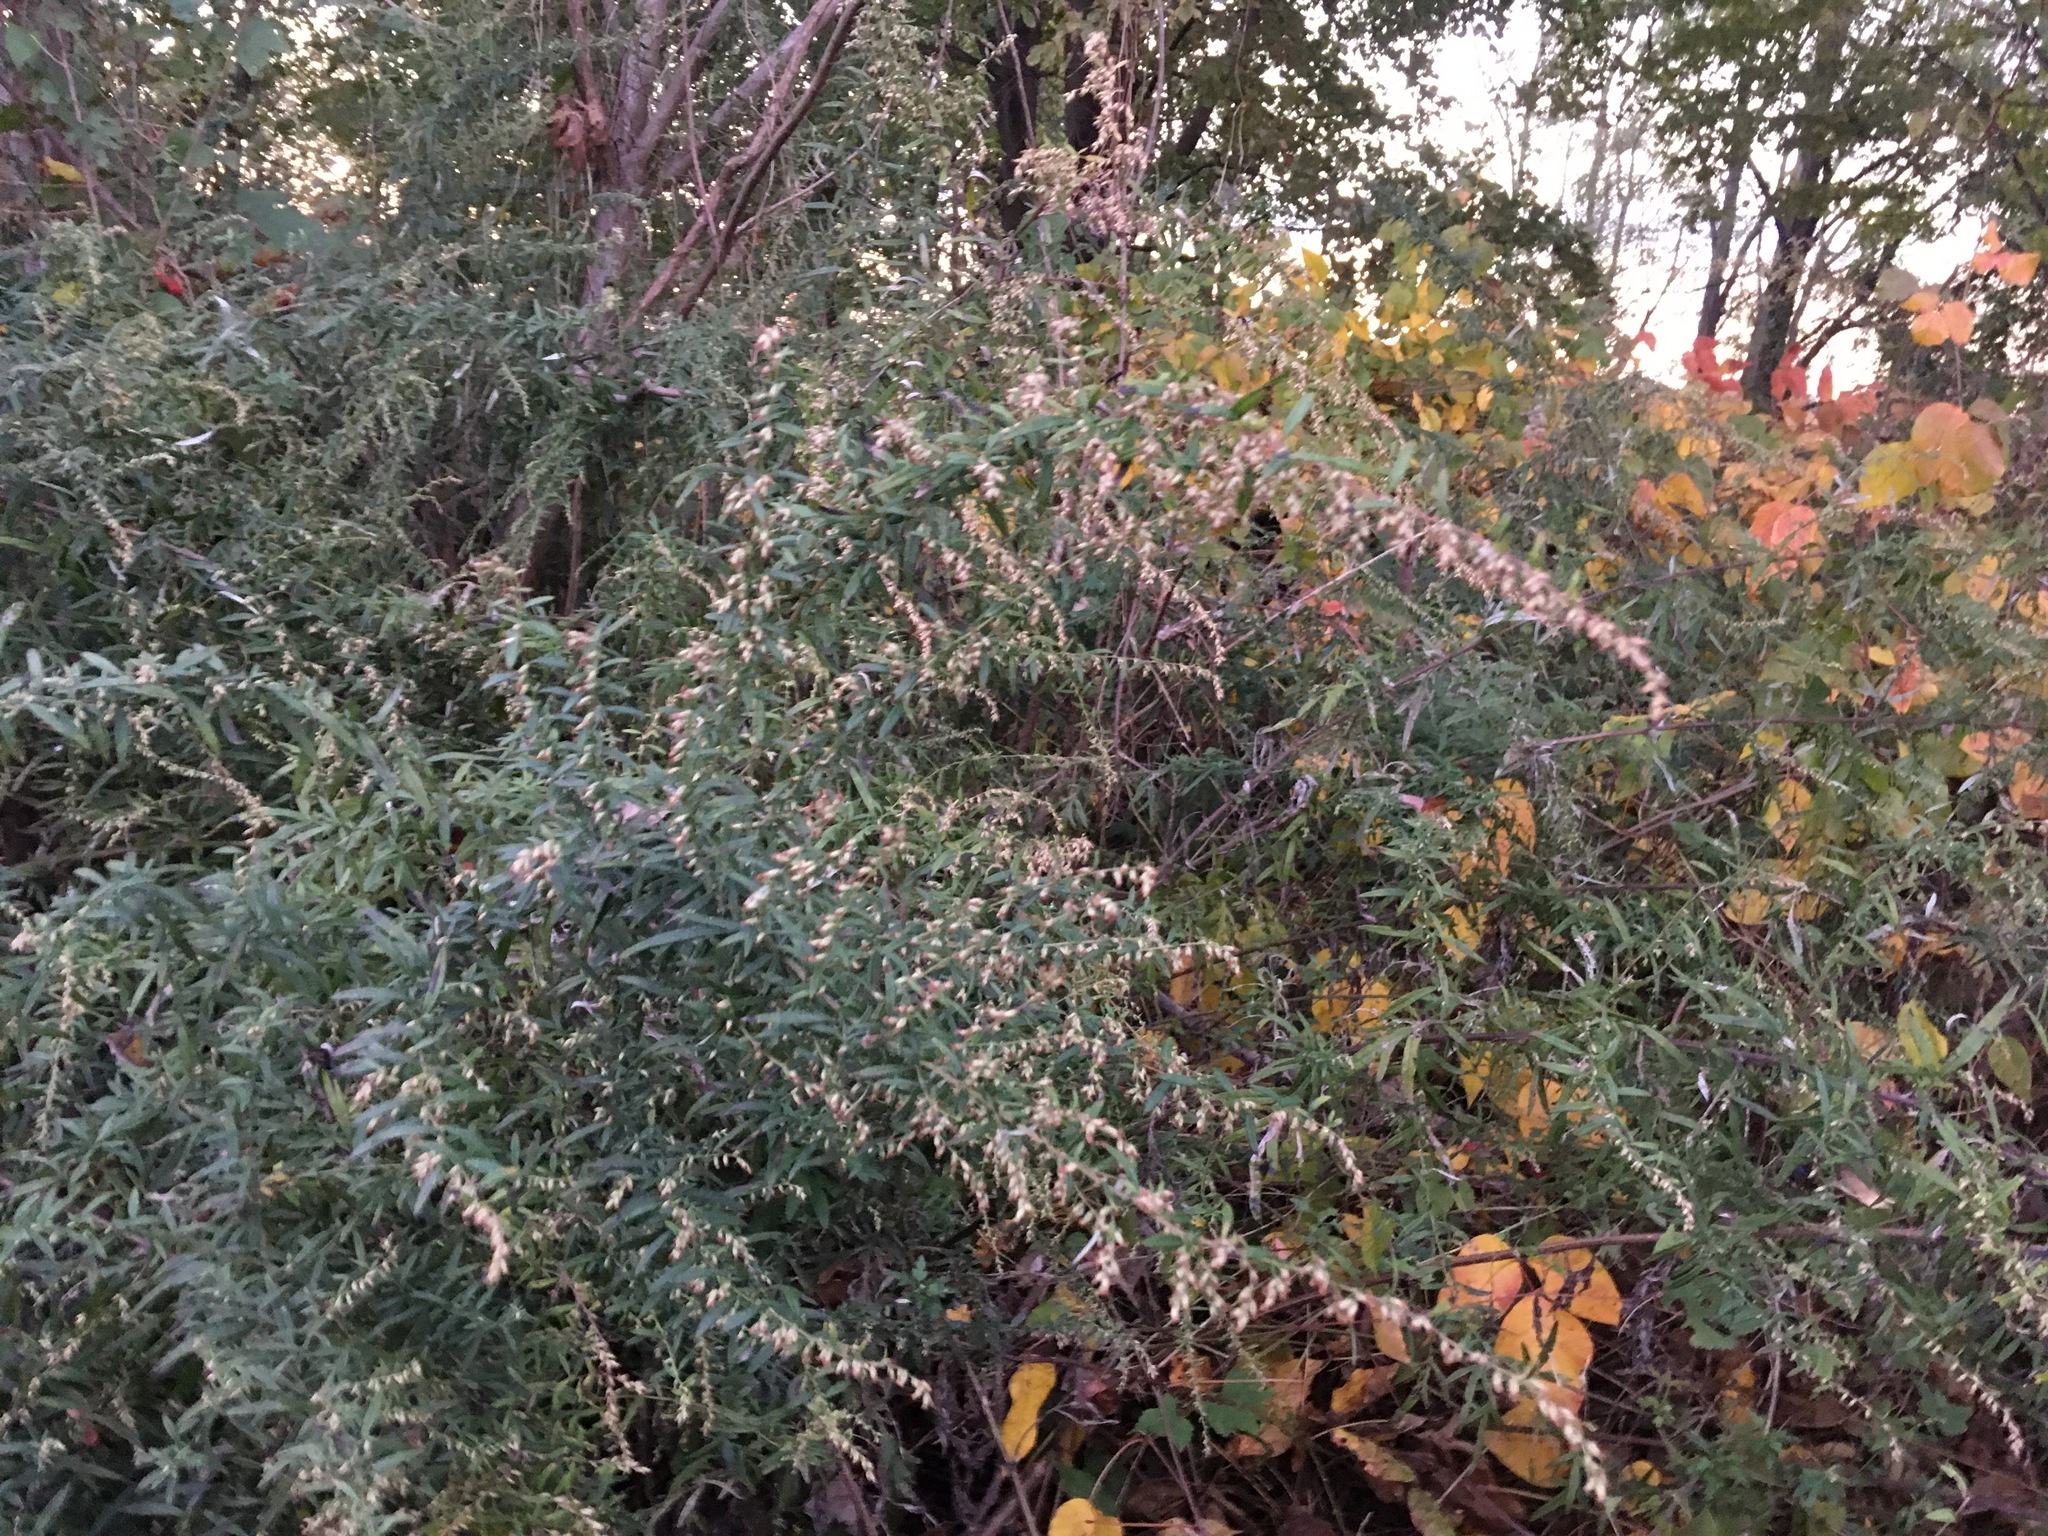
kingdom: Plantae
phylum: Tracheophyta
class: Magnoliopsida
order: Asterales
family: Asteraceae
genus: Artemisia
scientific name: Artemisia vulgaris
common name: Mugwort
